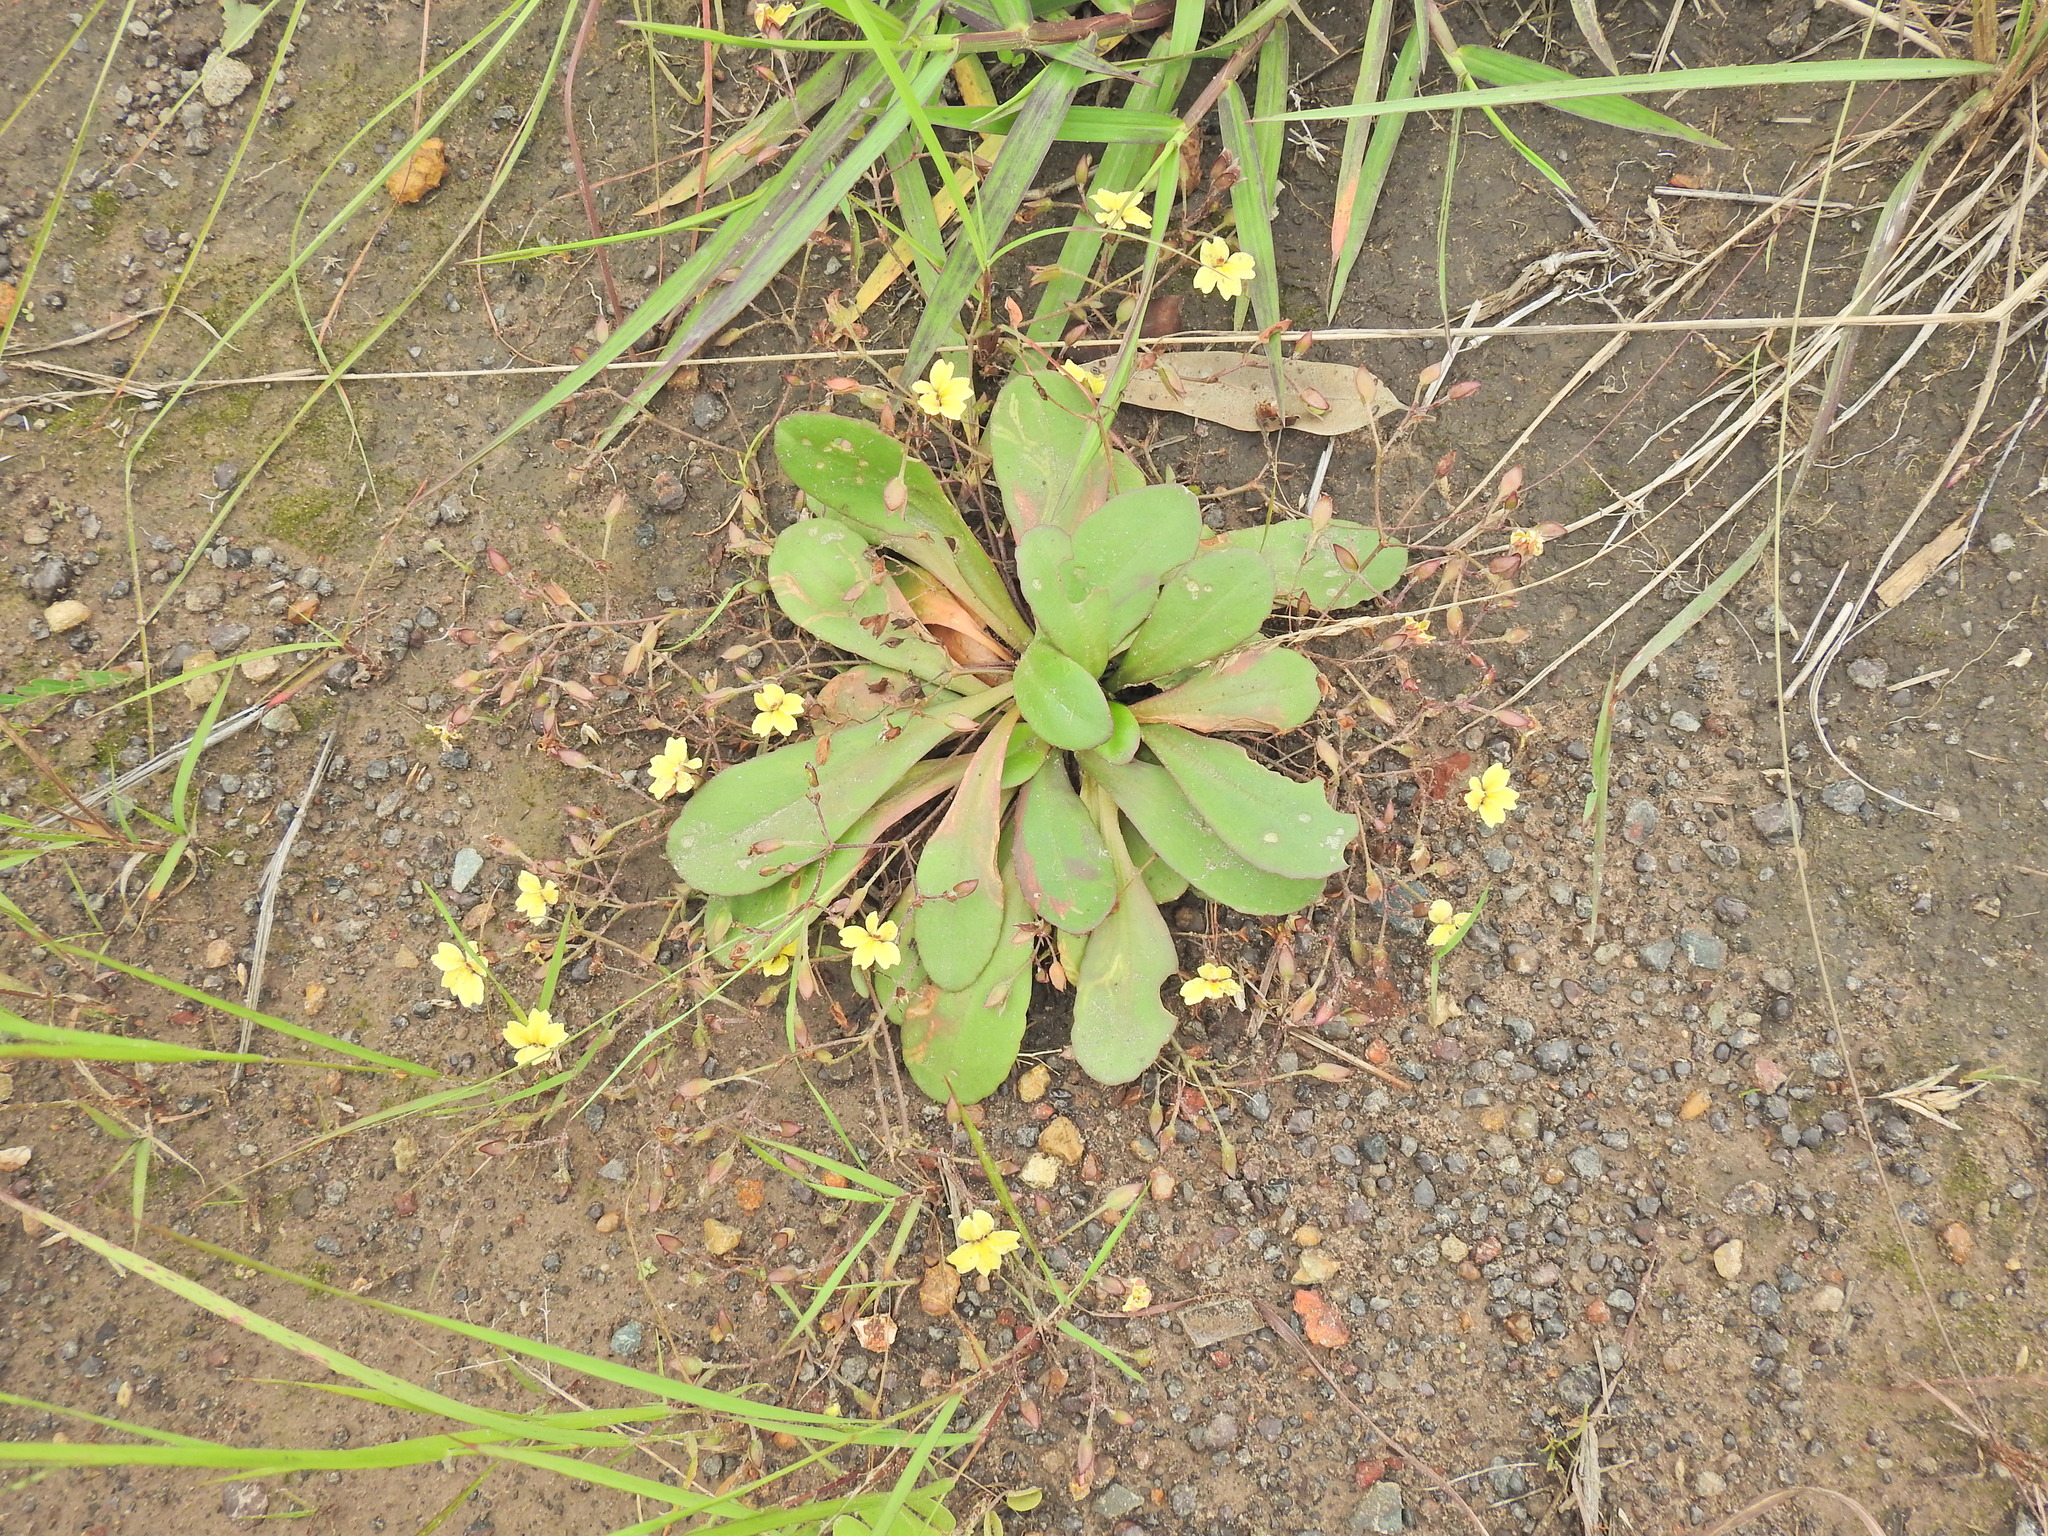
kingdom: Plantae
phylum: Tracheophyta
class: Magnoliopsida
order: Asterales
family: Goodeniaceae
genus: Goodenia
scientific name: Goodenia mystrophylla
